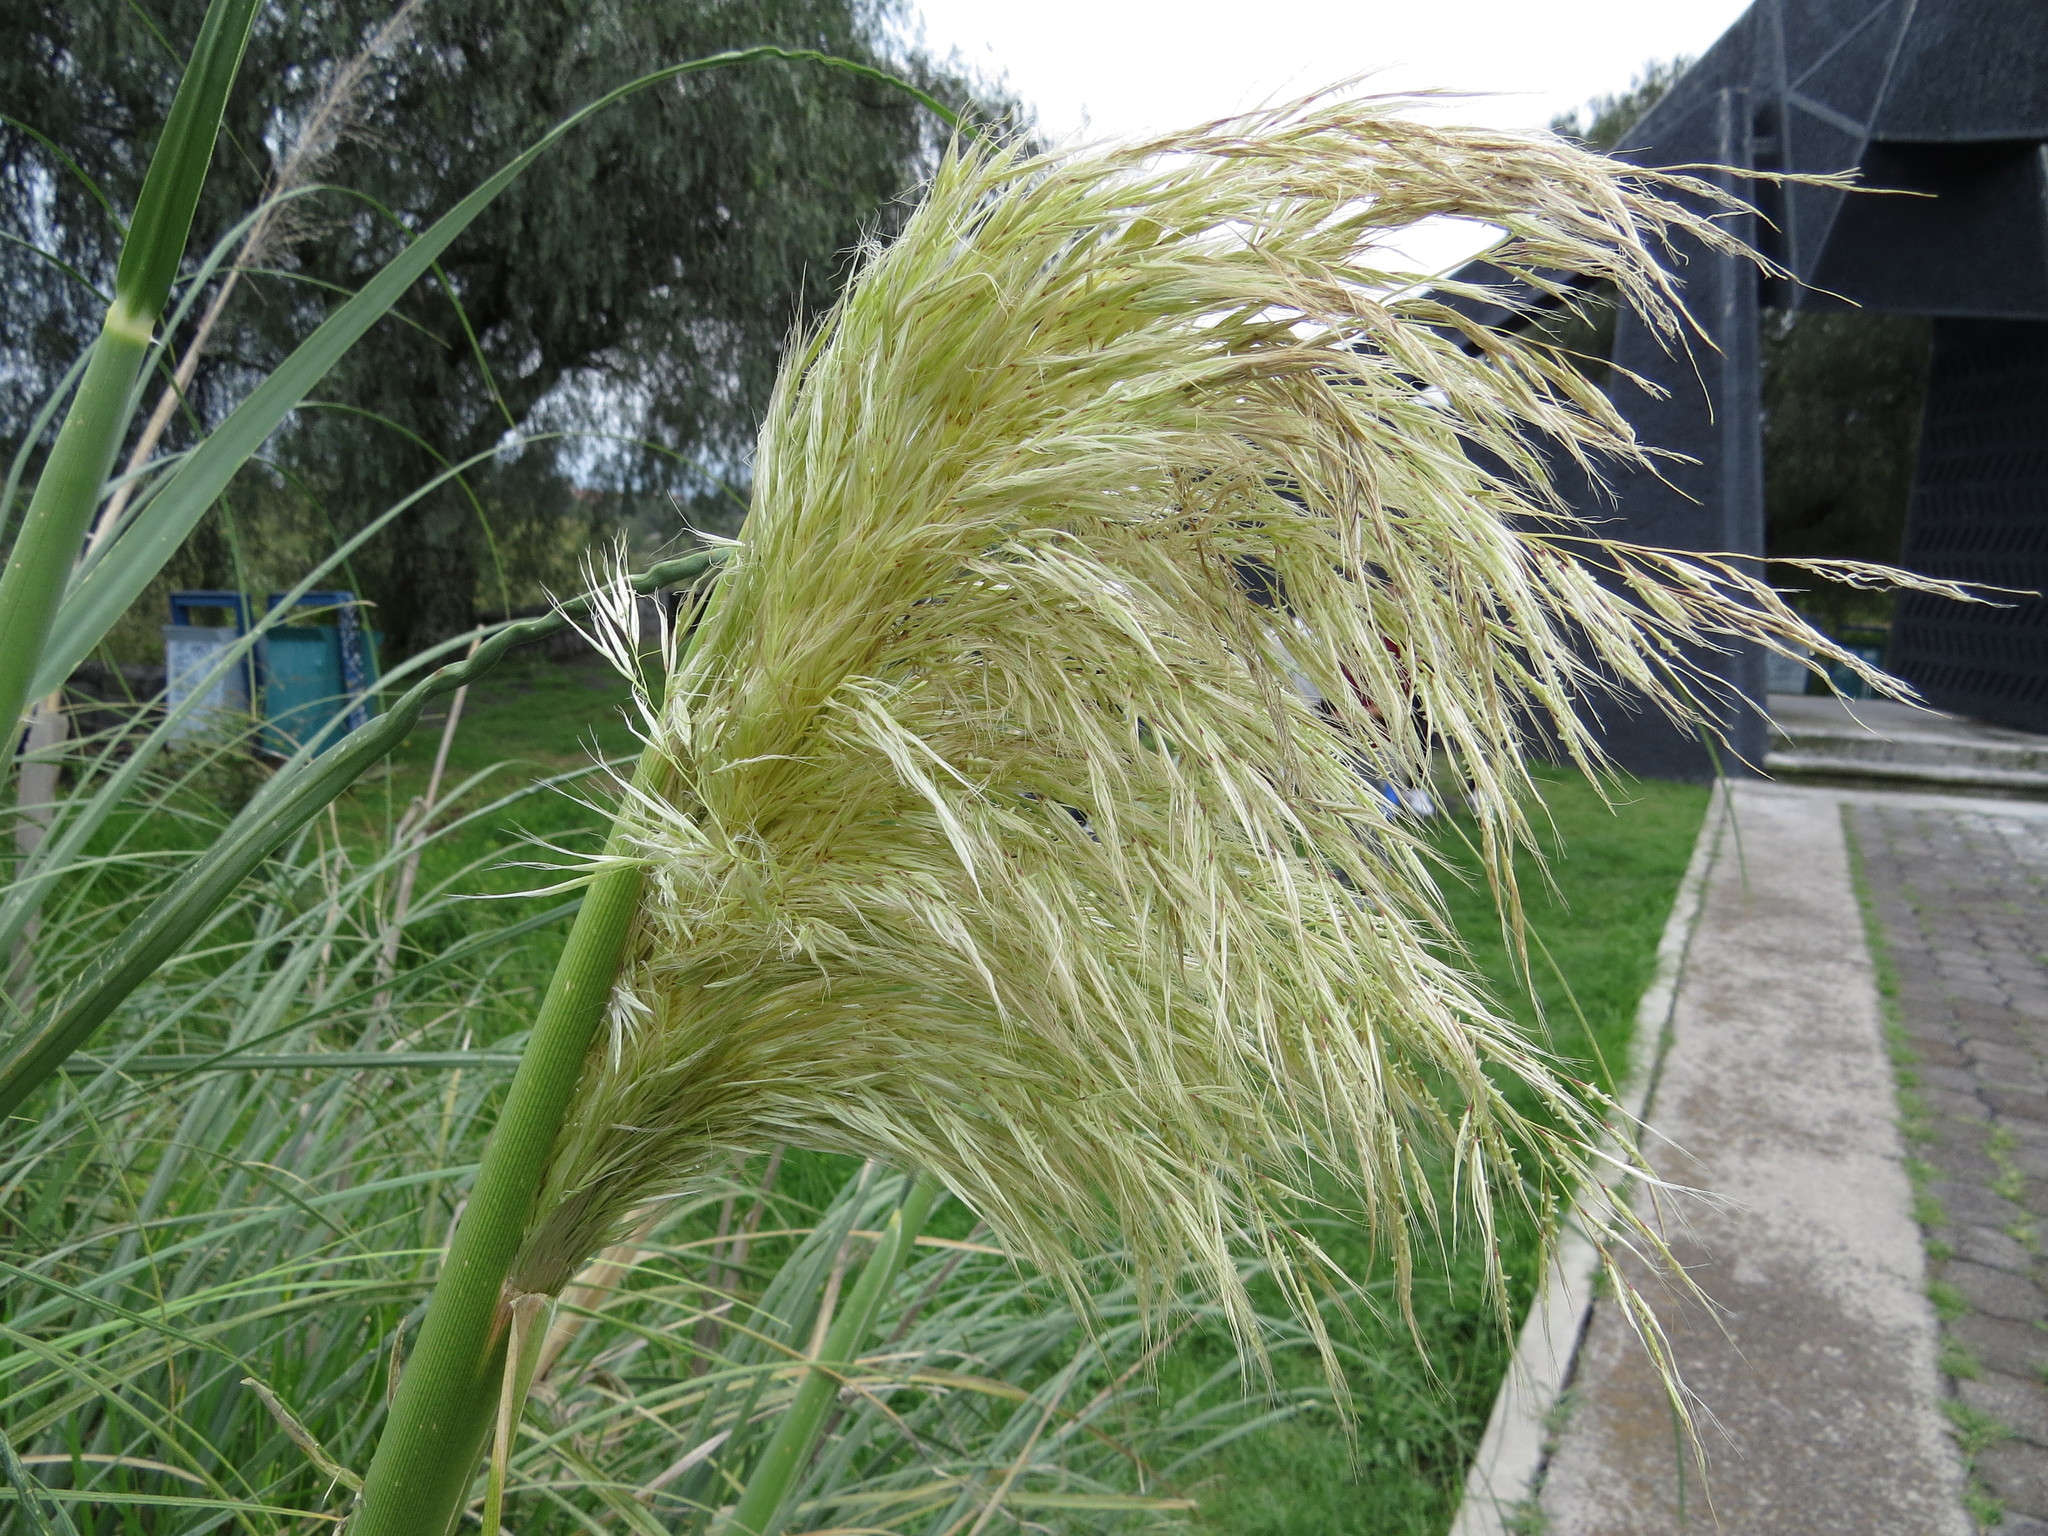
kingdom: Plantae
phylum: Tracheophyta
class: Liliopsida
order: Poales
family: Poaceae
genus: Cortaderia
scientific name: Cortaderia selloana
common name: Uruguayan pampas grass
